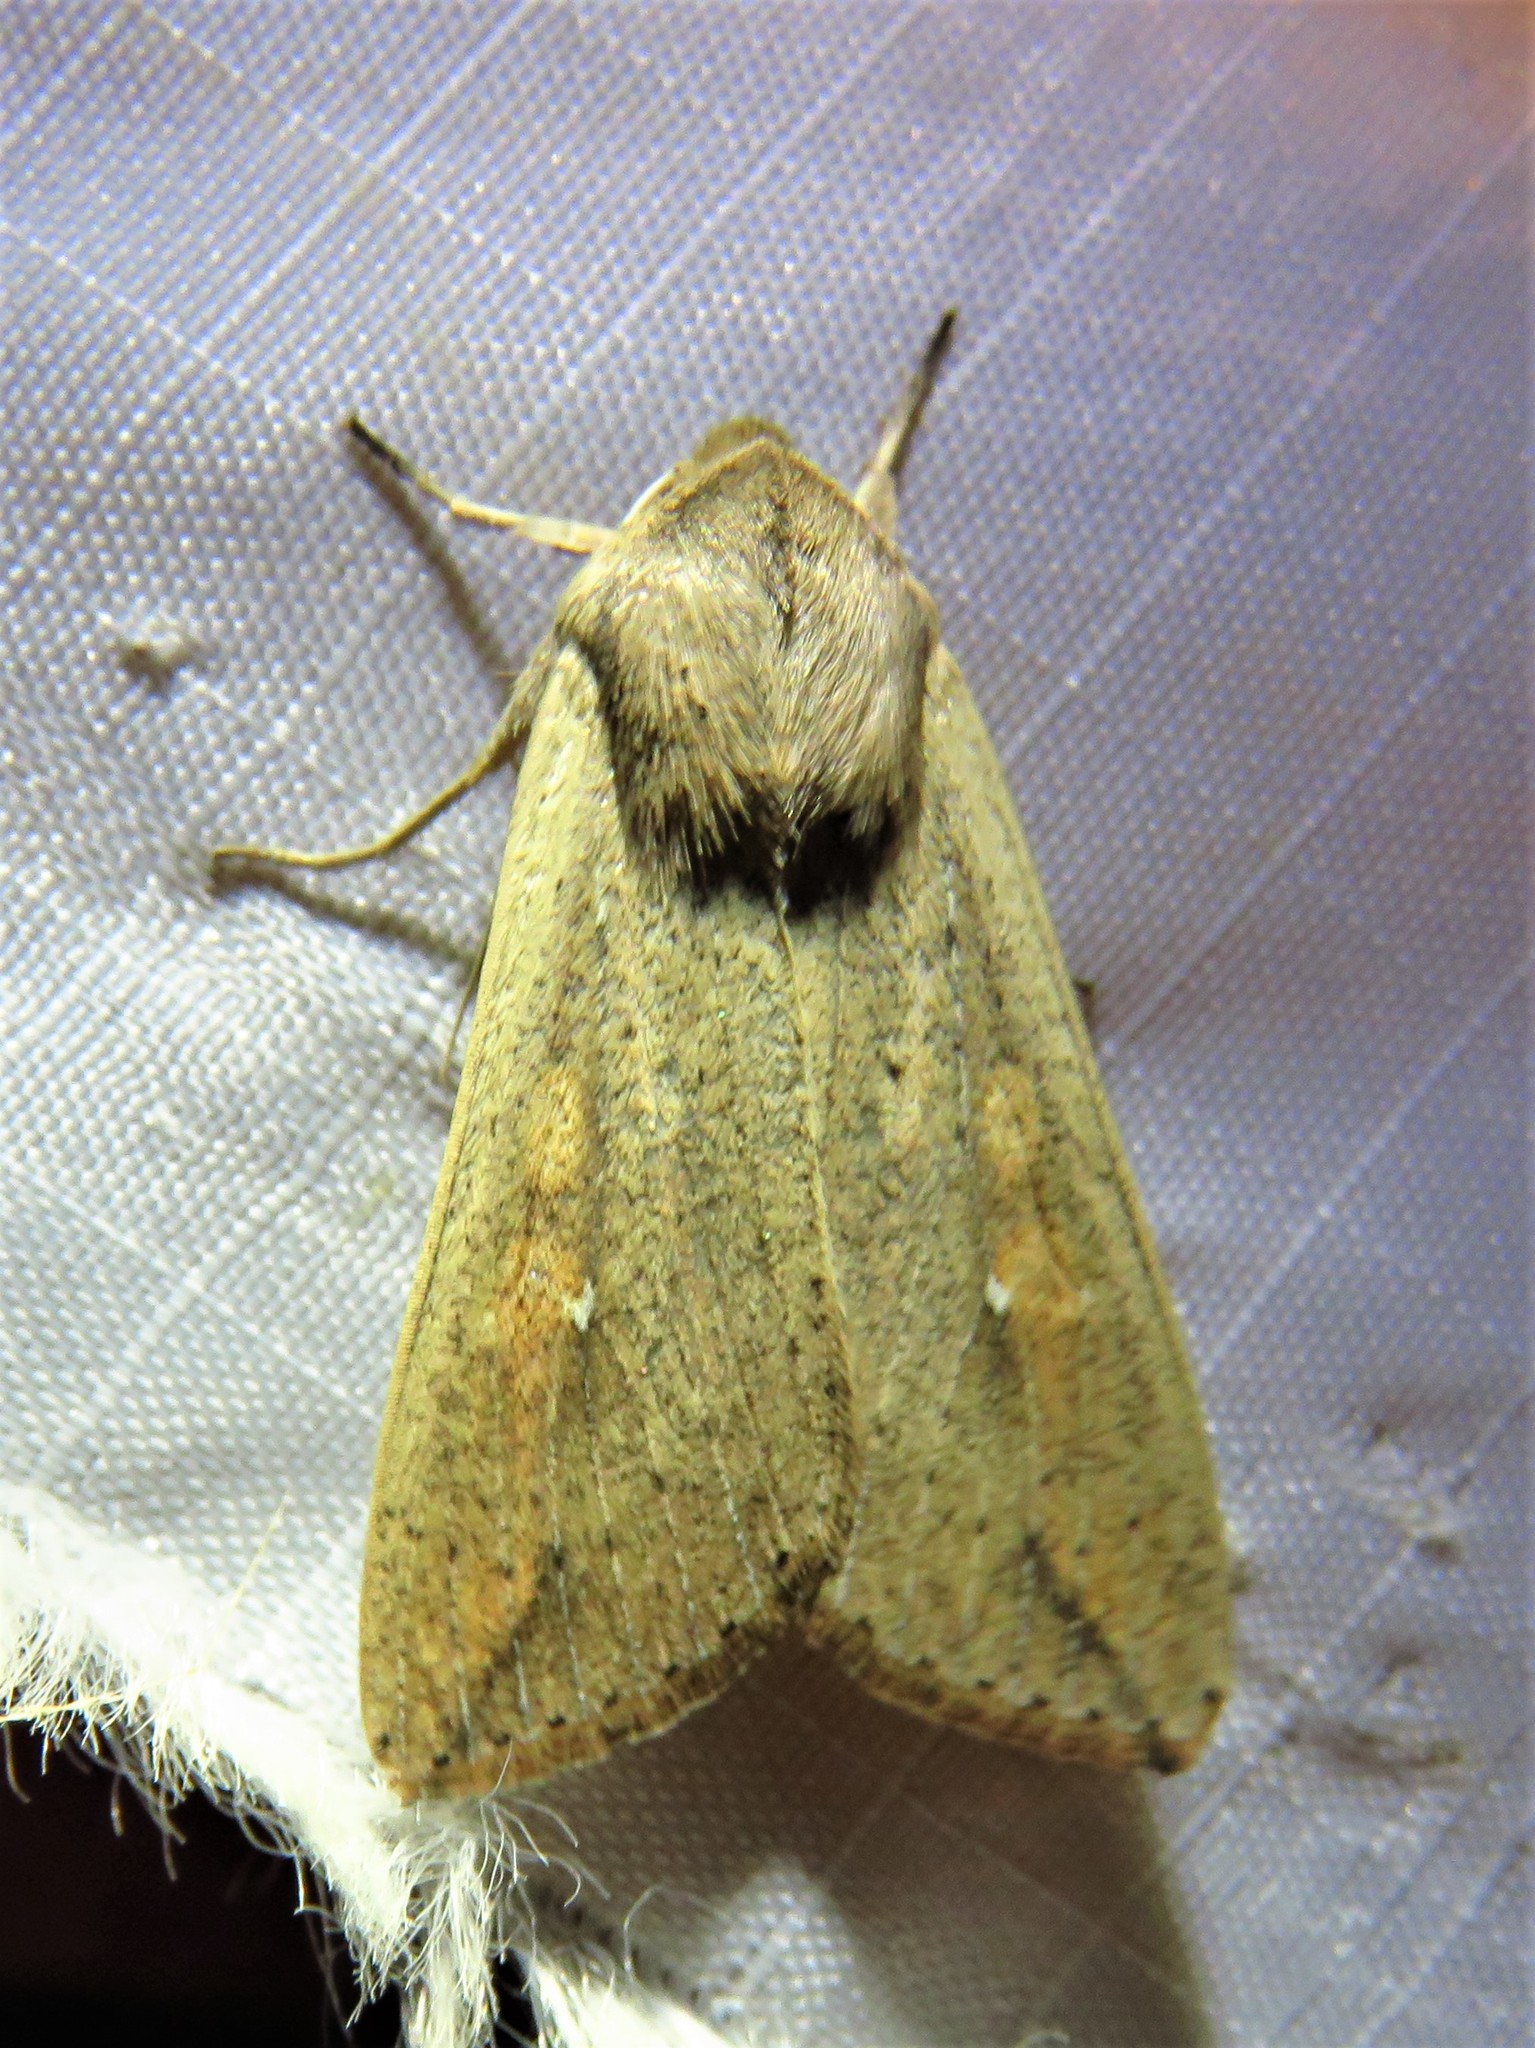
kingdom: Animalia
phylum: Arthropoda
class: Insecta
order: Lepidoptera
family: Noctuidae
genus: Mythimna
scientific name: Mythimna unipuncta
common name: White-speck
